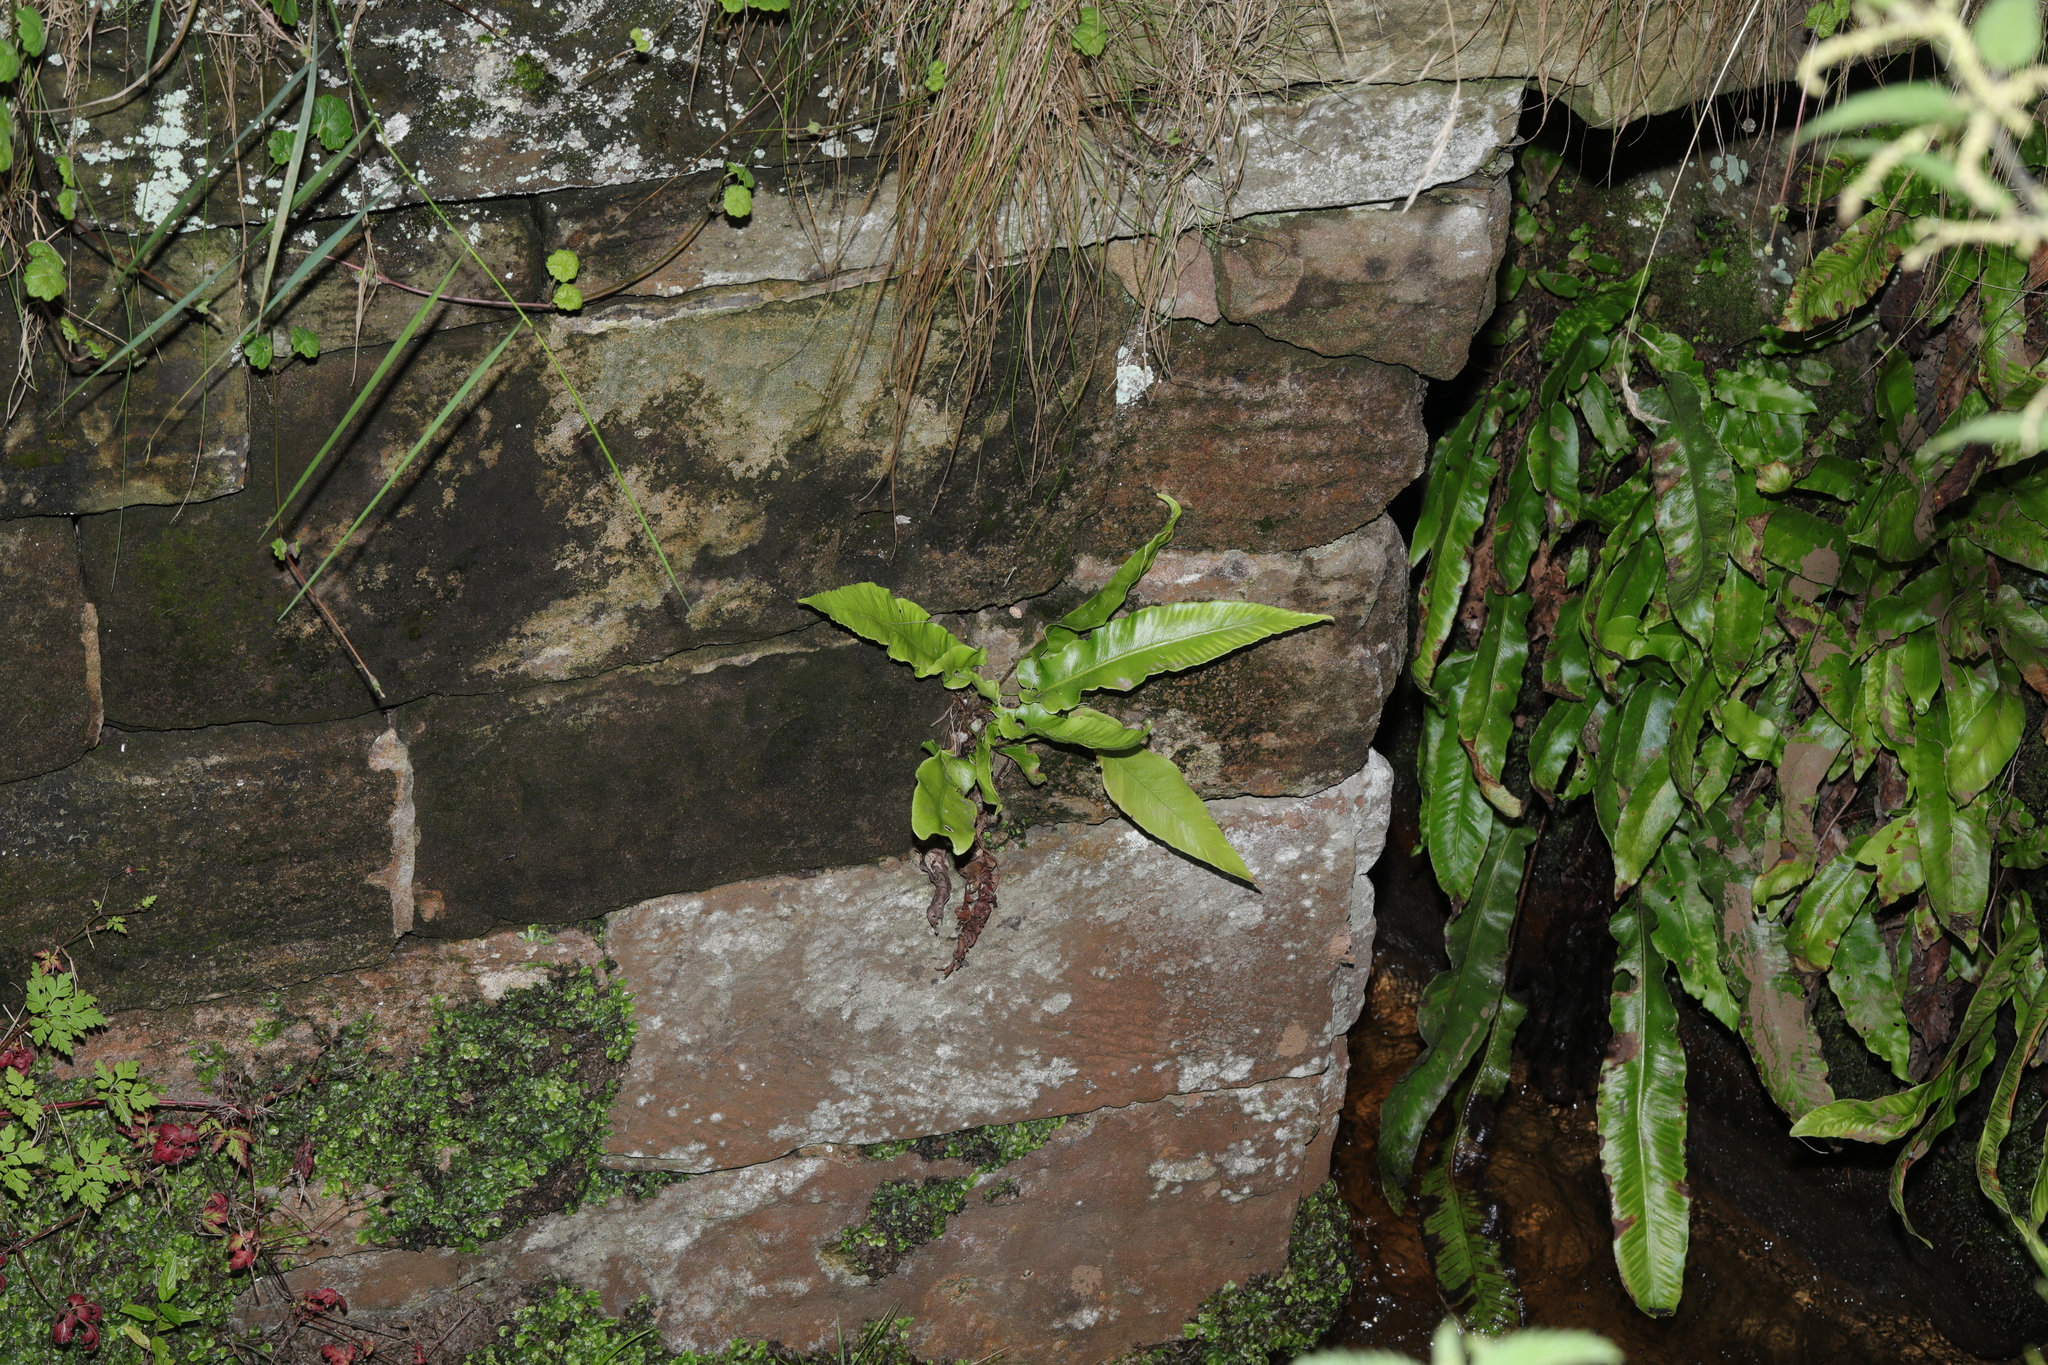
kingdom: Plantae
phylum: Tracheophyta
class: Polypodiopsida
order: Polypodiales
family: Aspleniaceae
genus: Asplenium
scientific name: Asplenium scolopendrium
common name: Hart's-tongue fern
